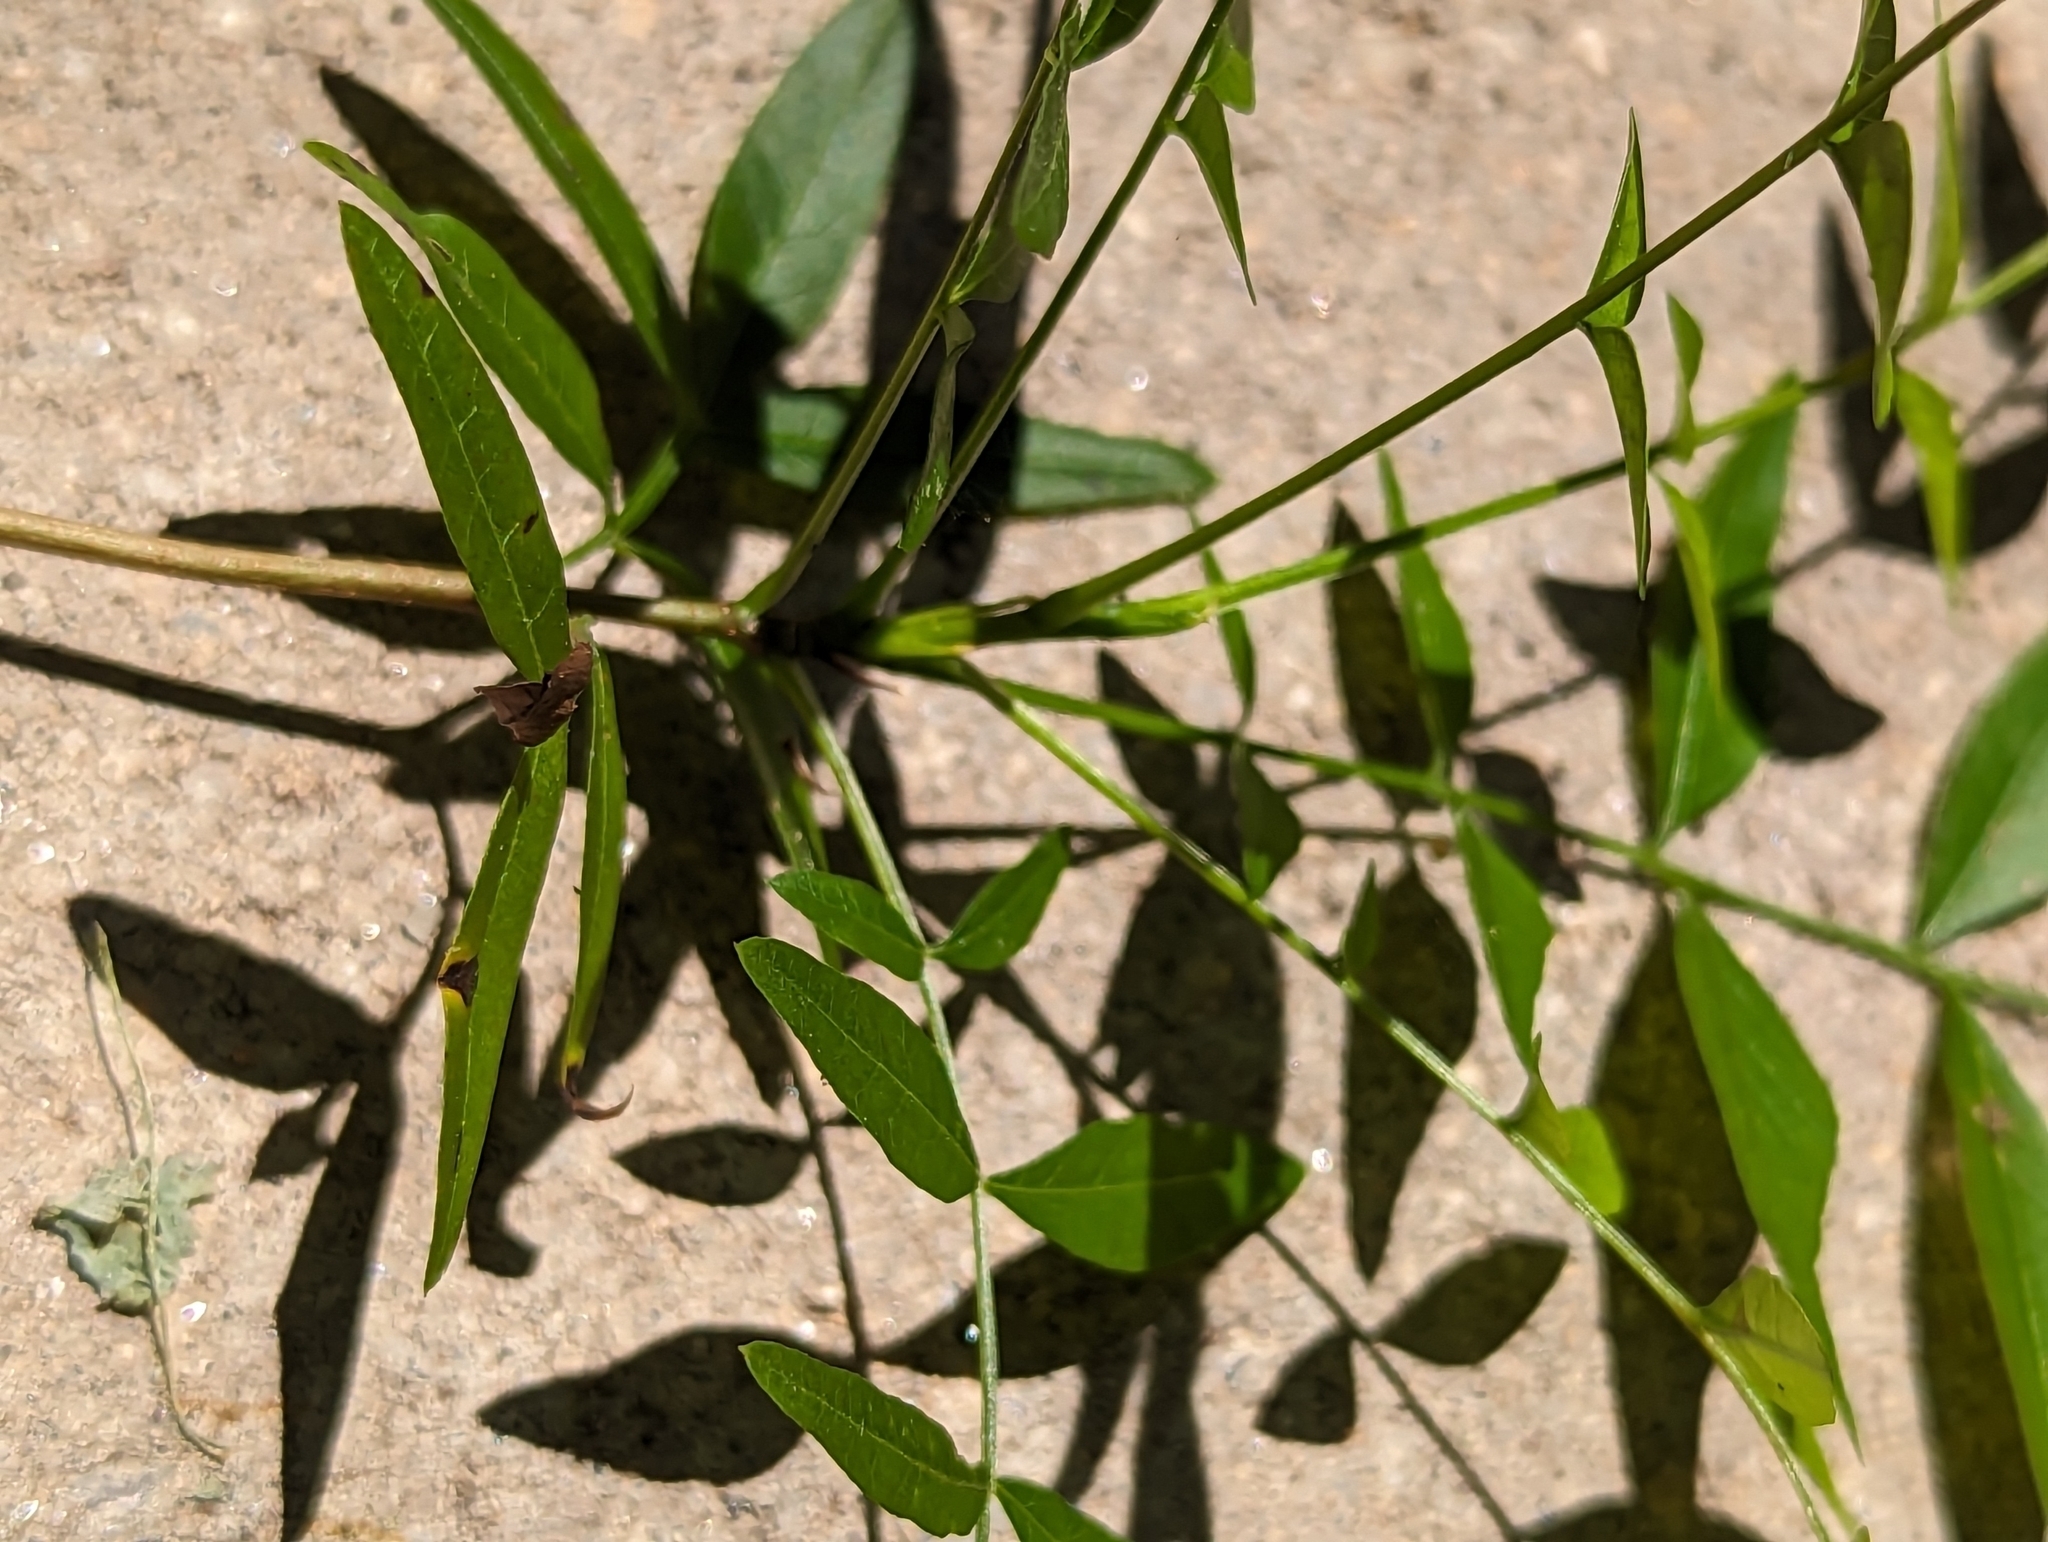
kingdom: Plantae
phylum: Tracheophyta
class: Magnoliopsida
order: Sapindales
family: Anacardiaceae
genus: Pistacia
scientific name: Pistacia chinensis
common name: Chinese pistache
